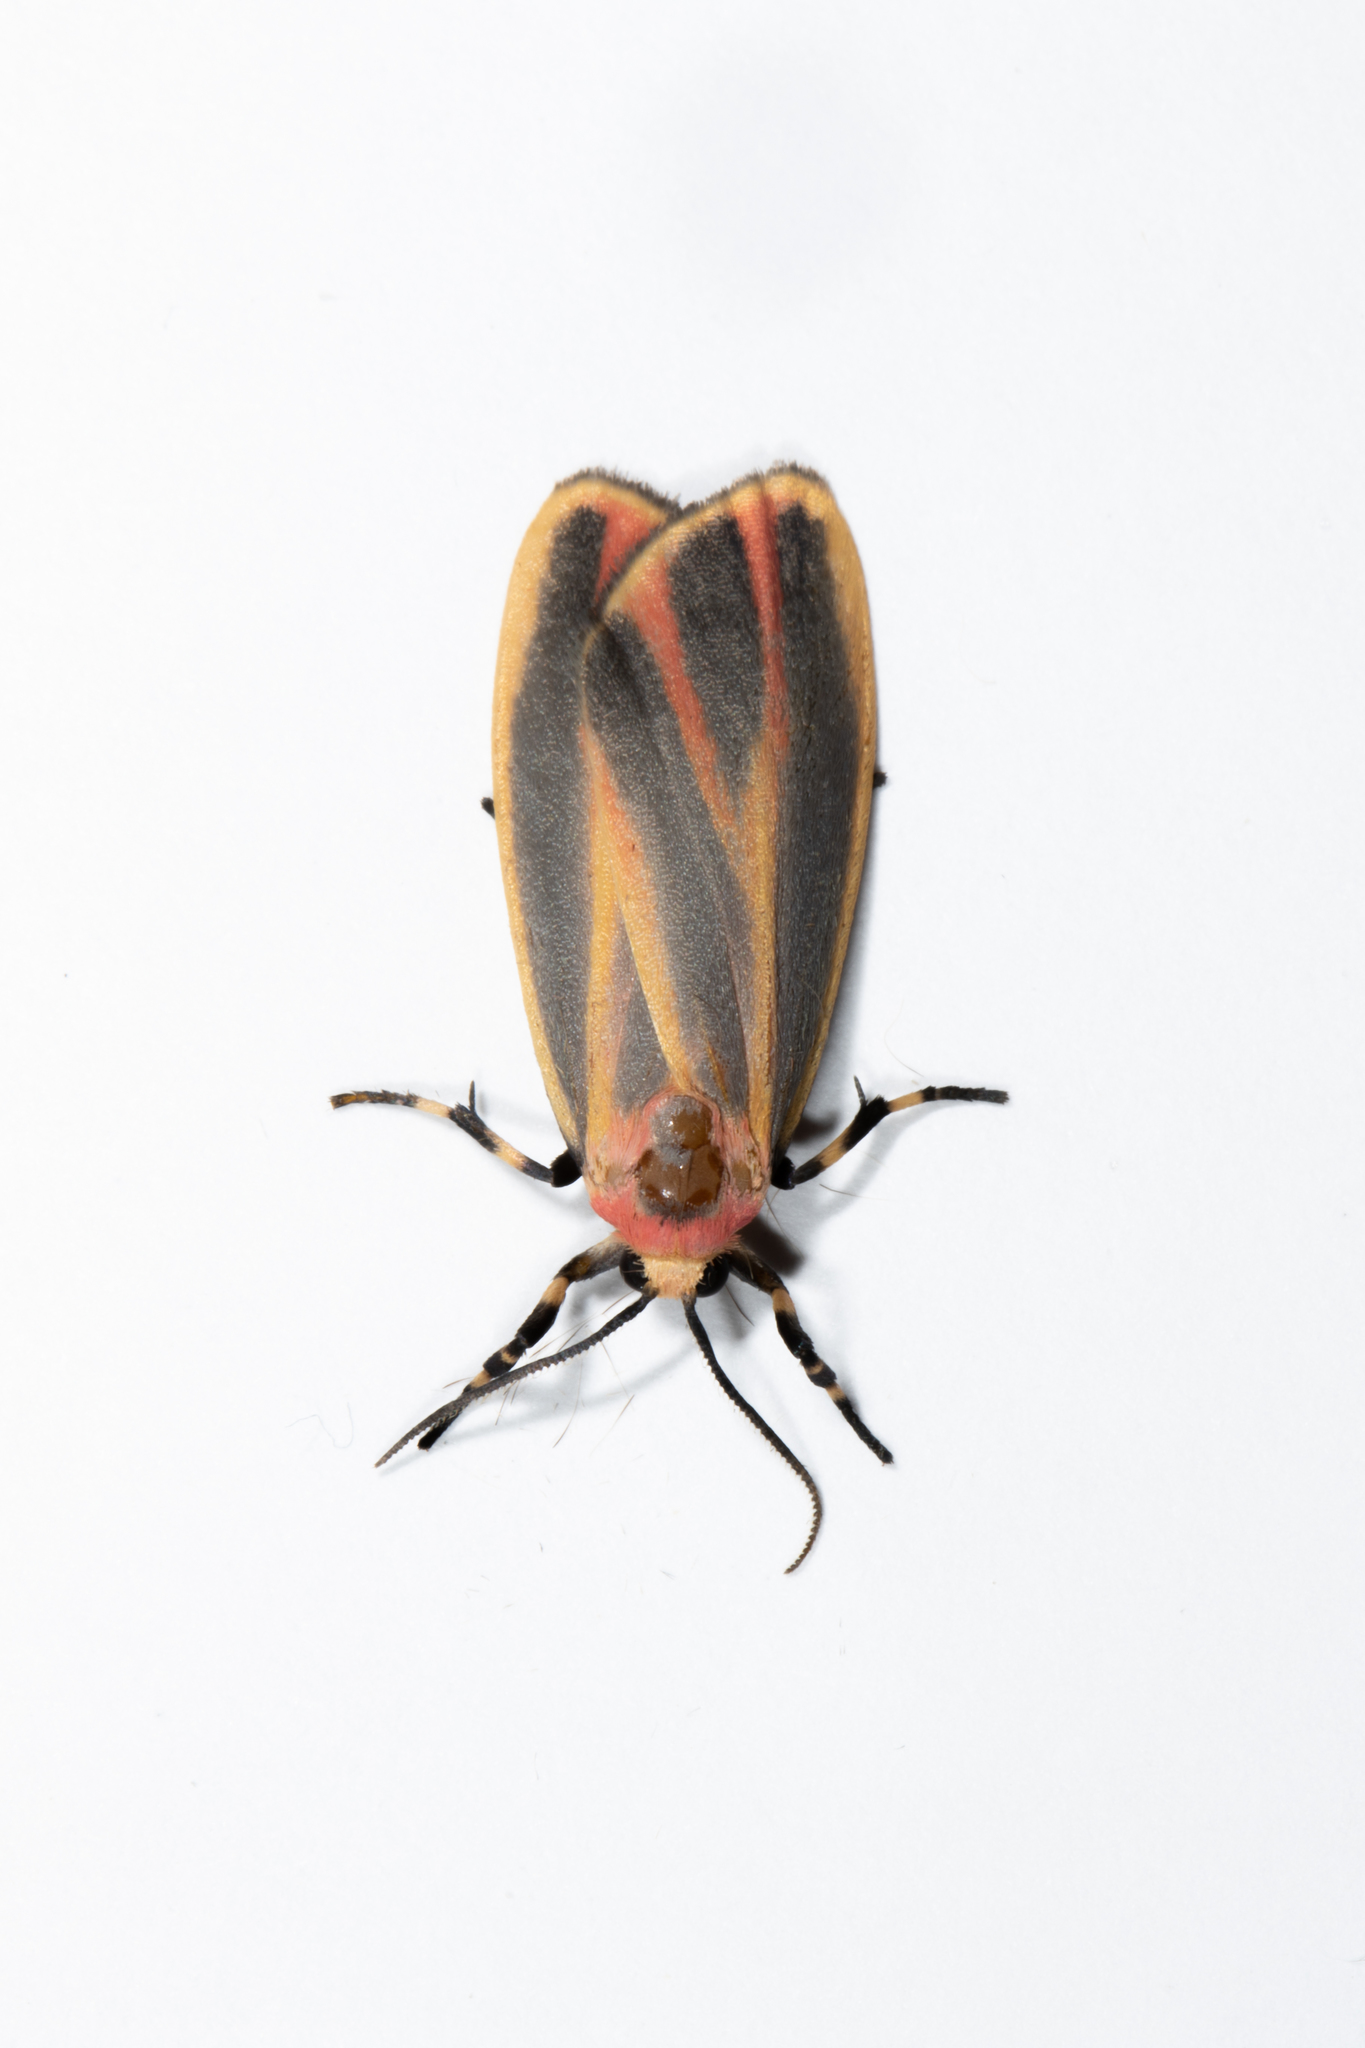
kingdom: Animalia
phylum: Arthropoda
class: Insecta
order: Lepidoptera
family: Erebidae
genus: Hypoprepia
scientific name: Hypoprepia fucosa
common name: Painted lichen moth
